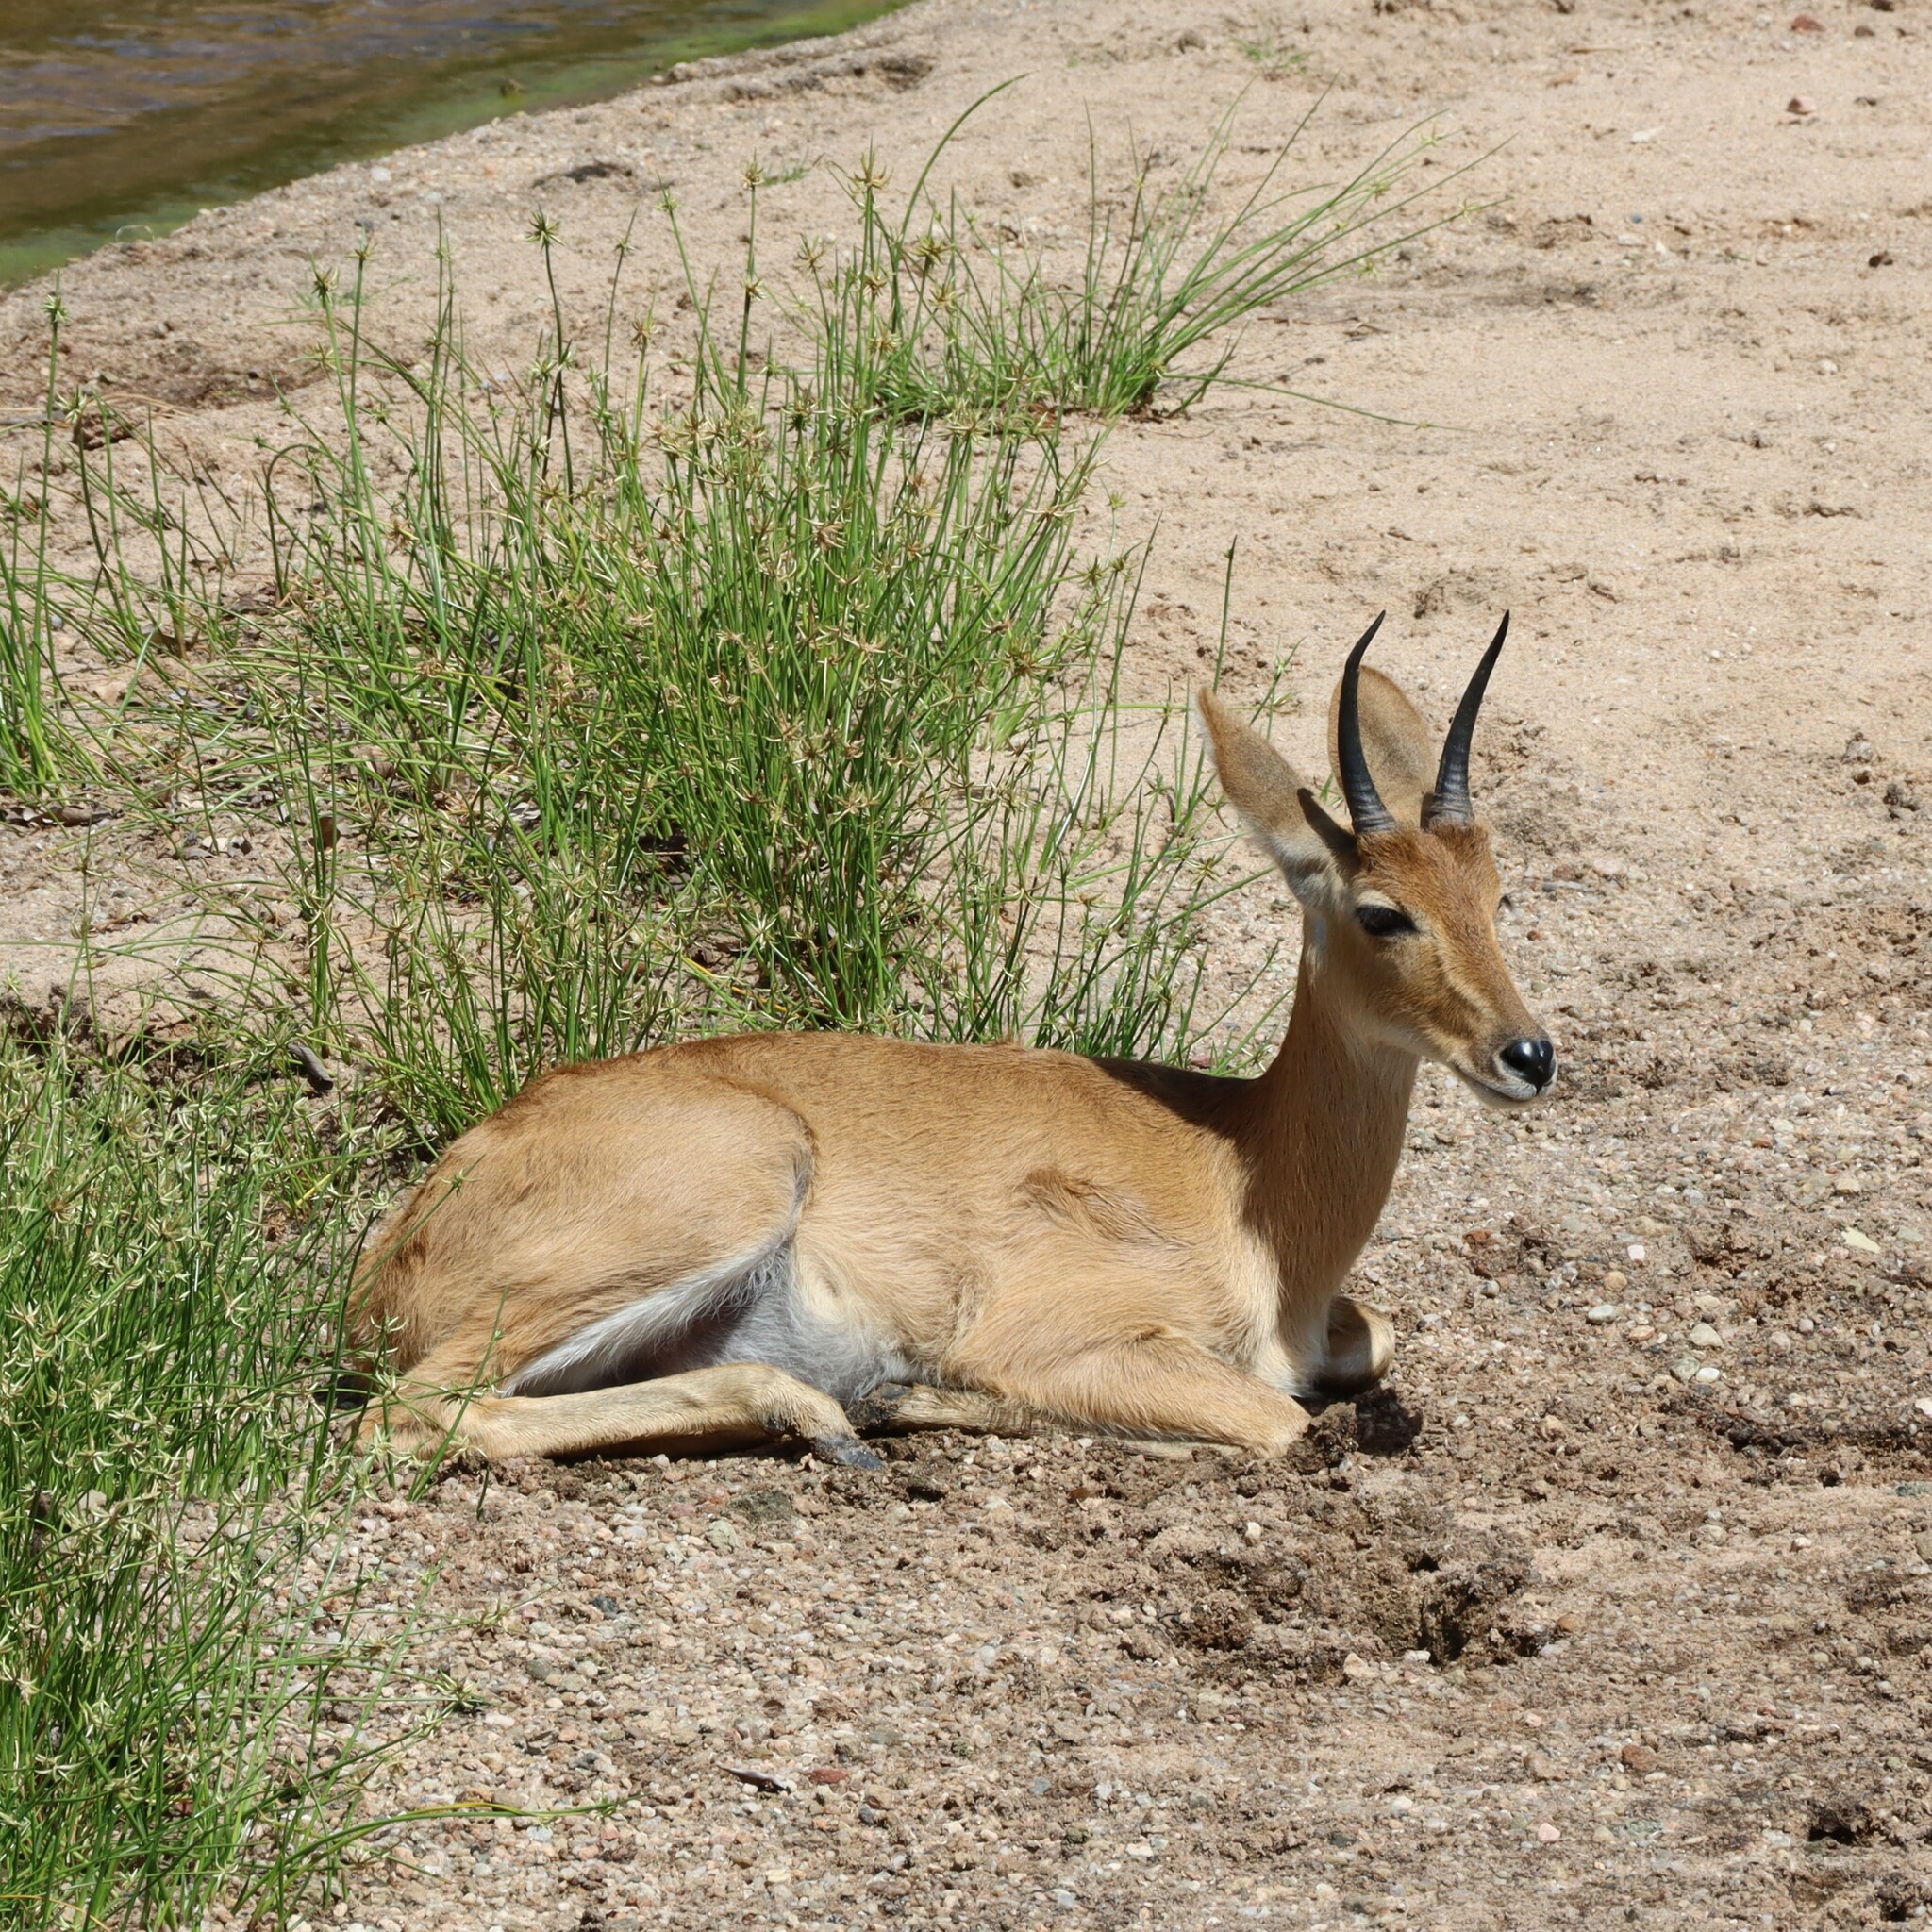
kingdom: Animalia
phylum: Chordata
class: Mammalia
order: Artiodactyla
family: Bovidae
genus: Redunca
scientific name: Redunca redunca
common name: Common reedbuck
